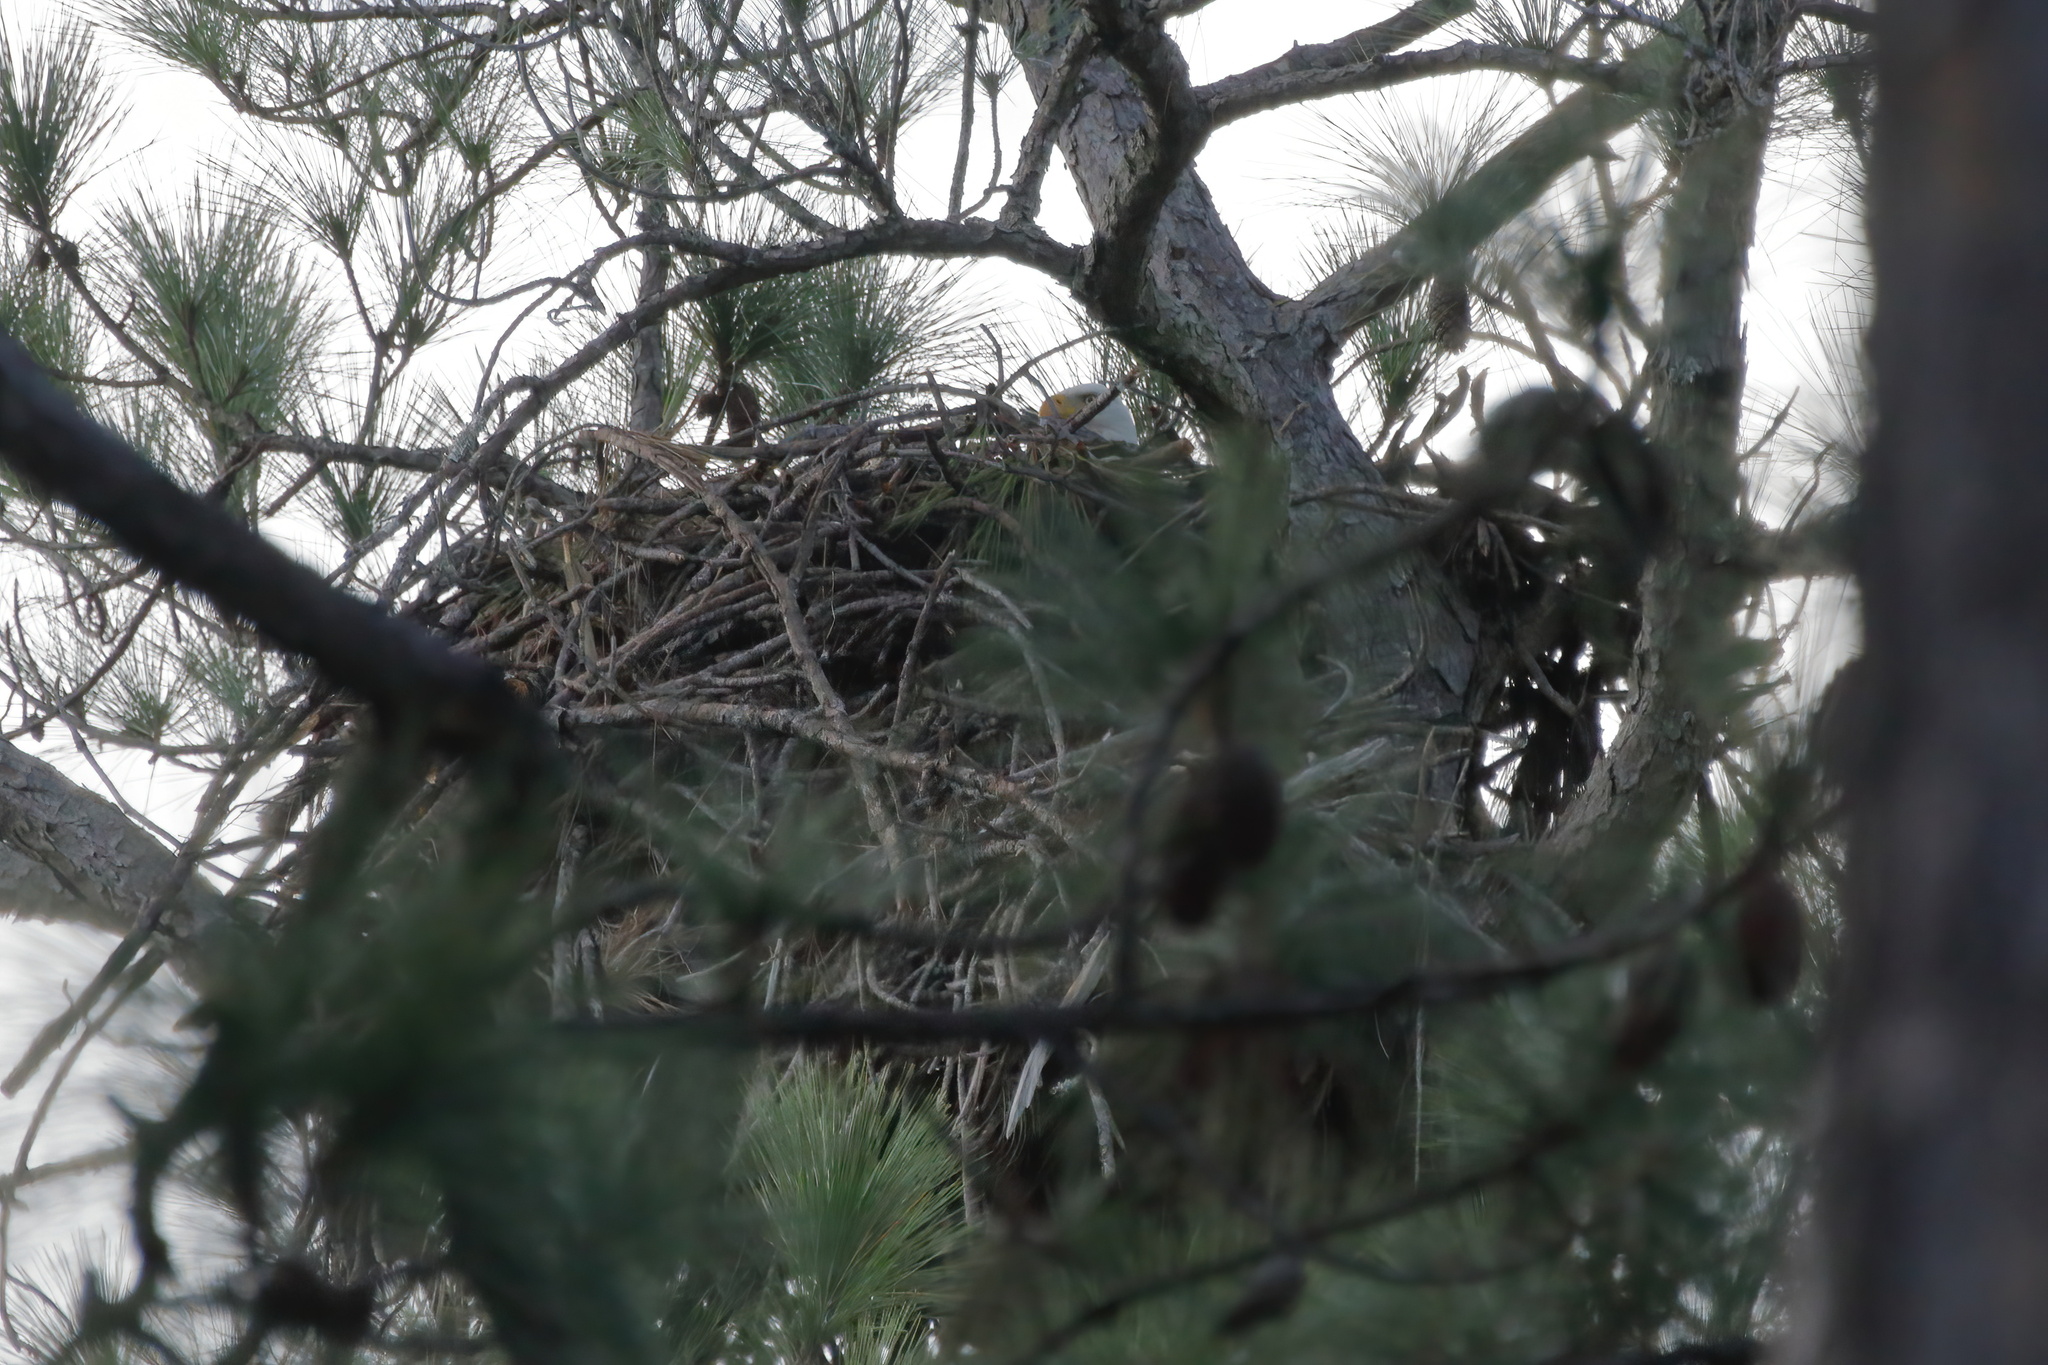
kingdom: Animalia
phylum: Chordata
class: Aves
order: Accipitriformes
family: Accipitridae
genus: Haliaeetus
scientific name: Haliaeetus leucocephalus
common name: Bald eagle
